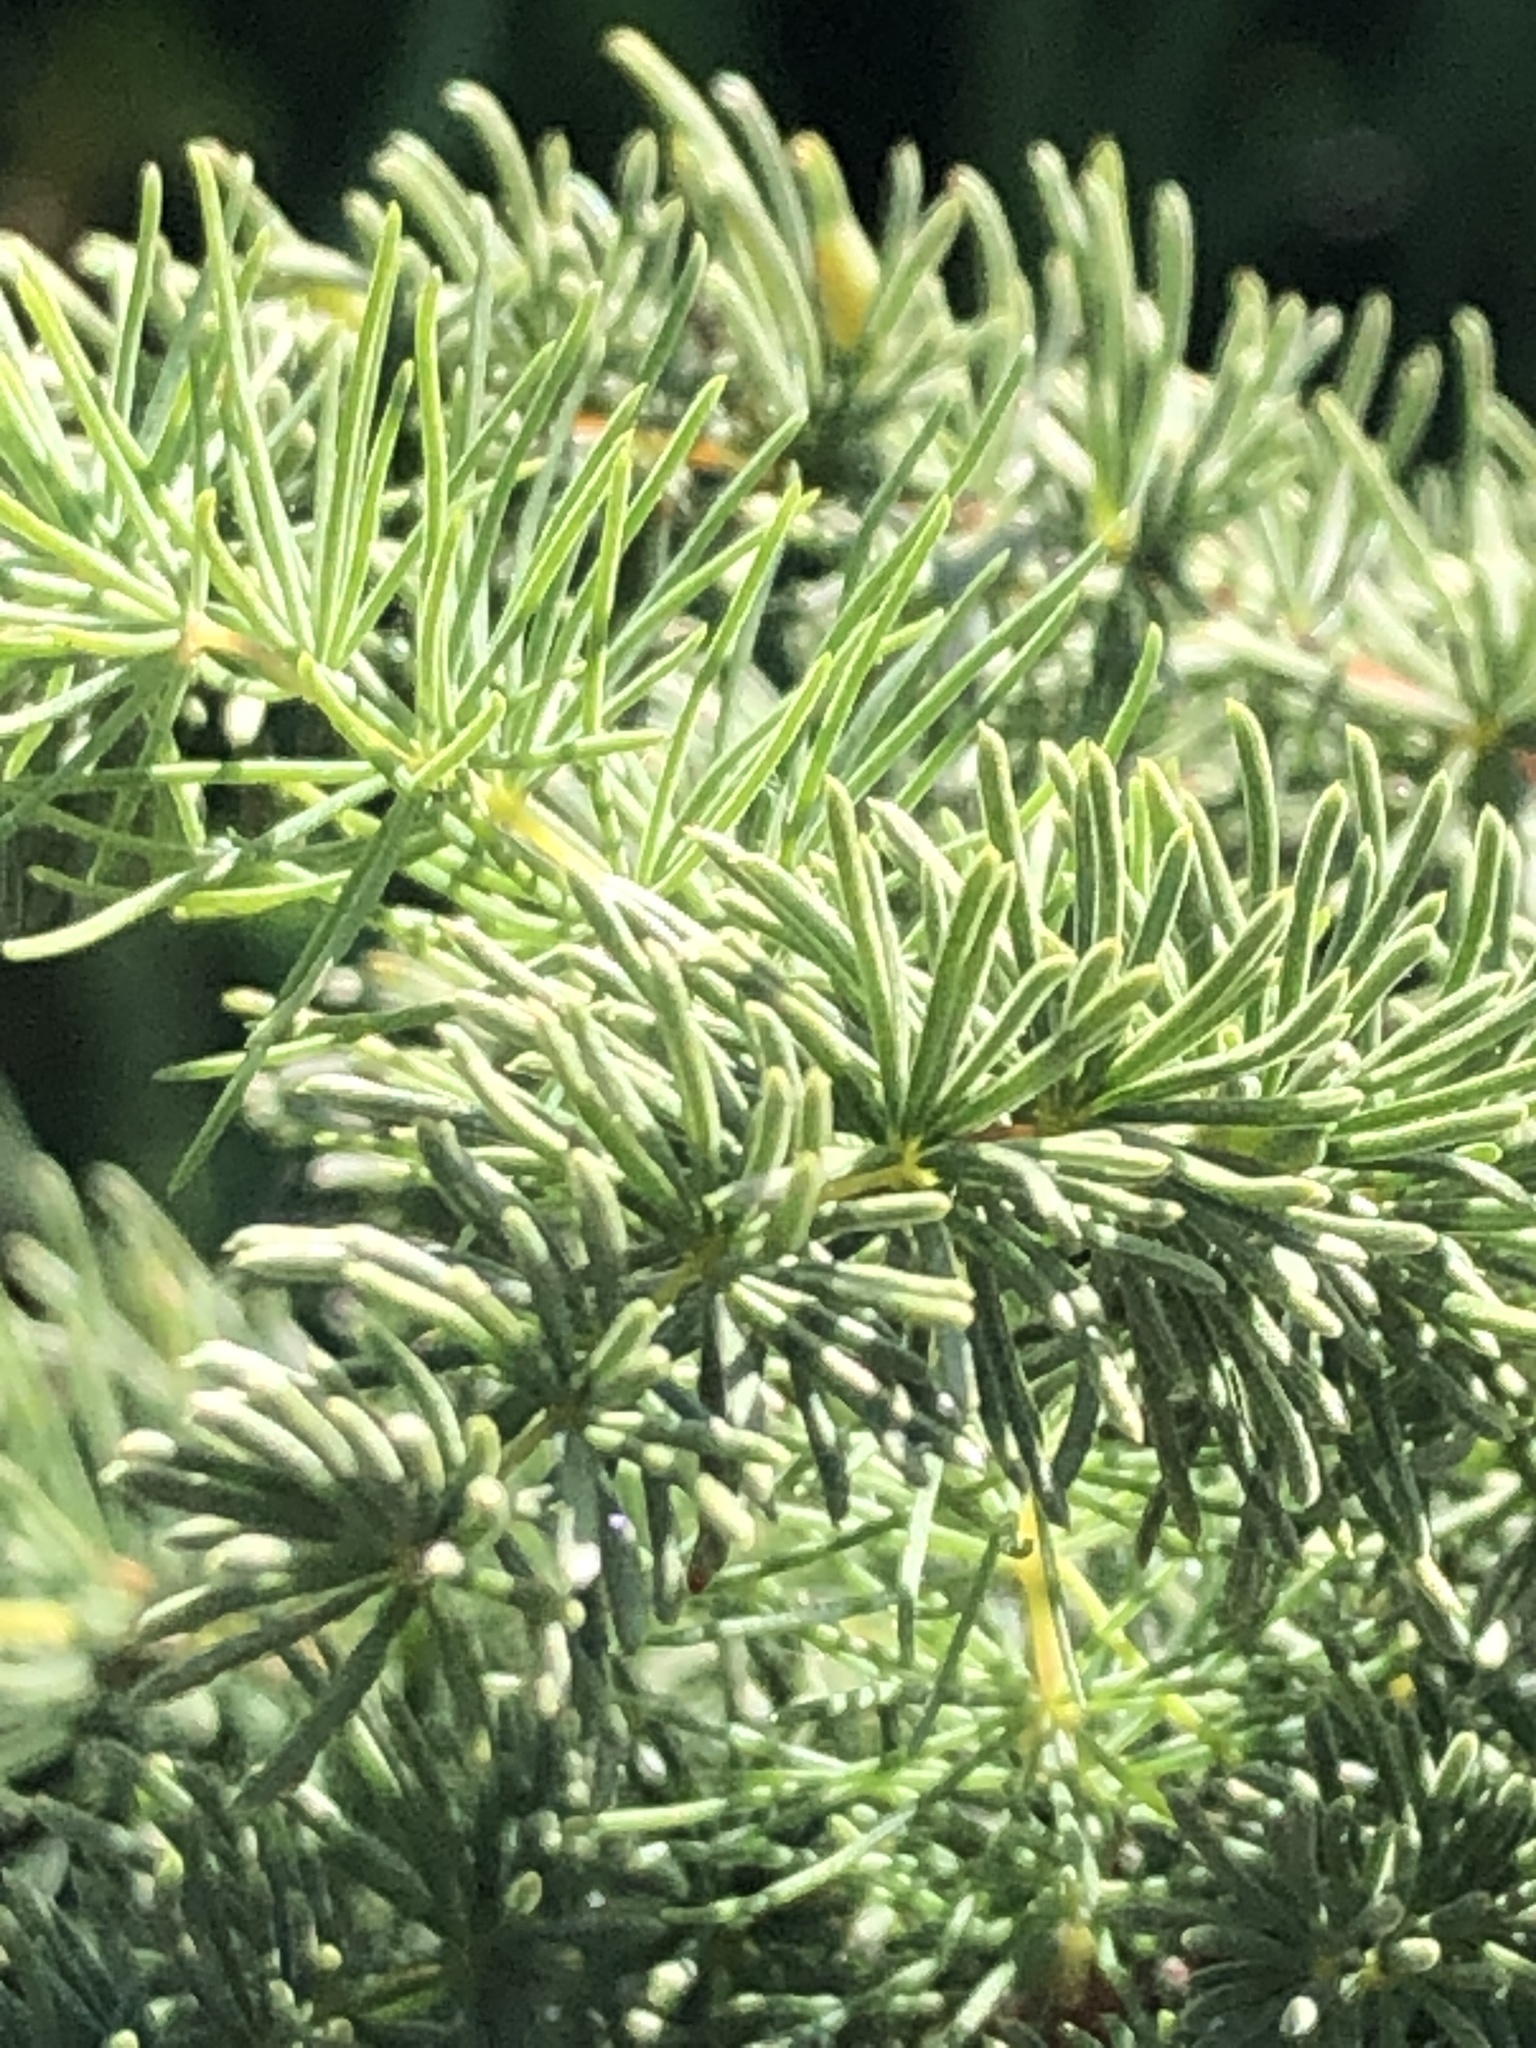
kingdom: Plantae
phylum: Tracheophyta
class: Liliopsida
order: Asparagales
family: Asparagaceae
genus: Asparagus
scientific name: Asparagus rubicundus
